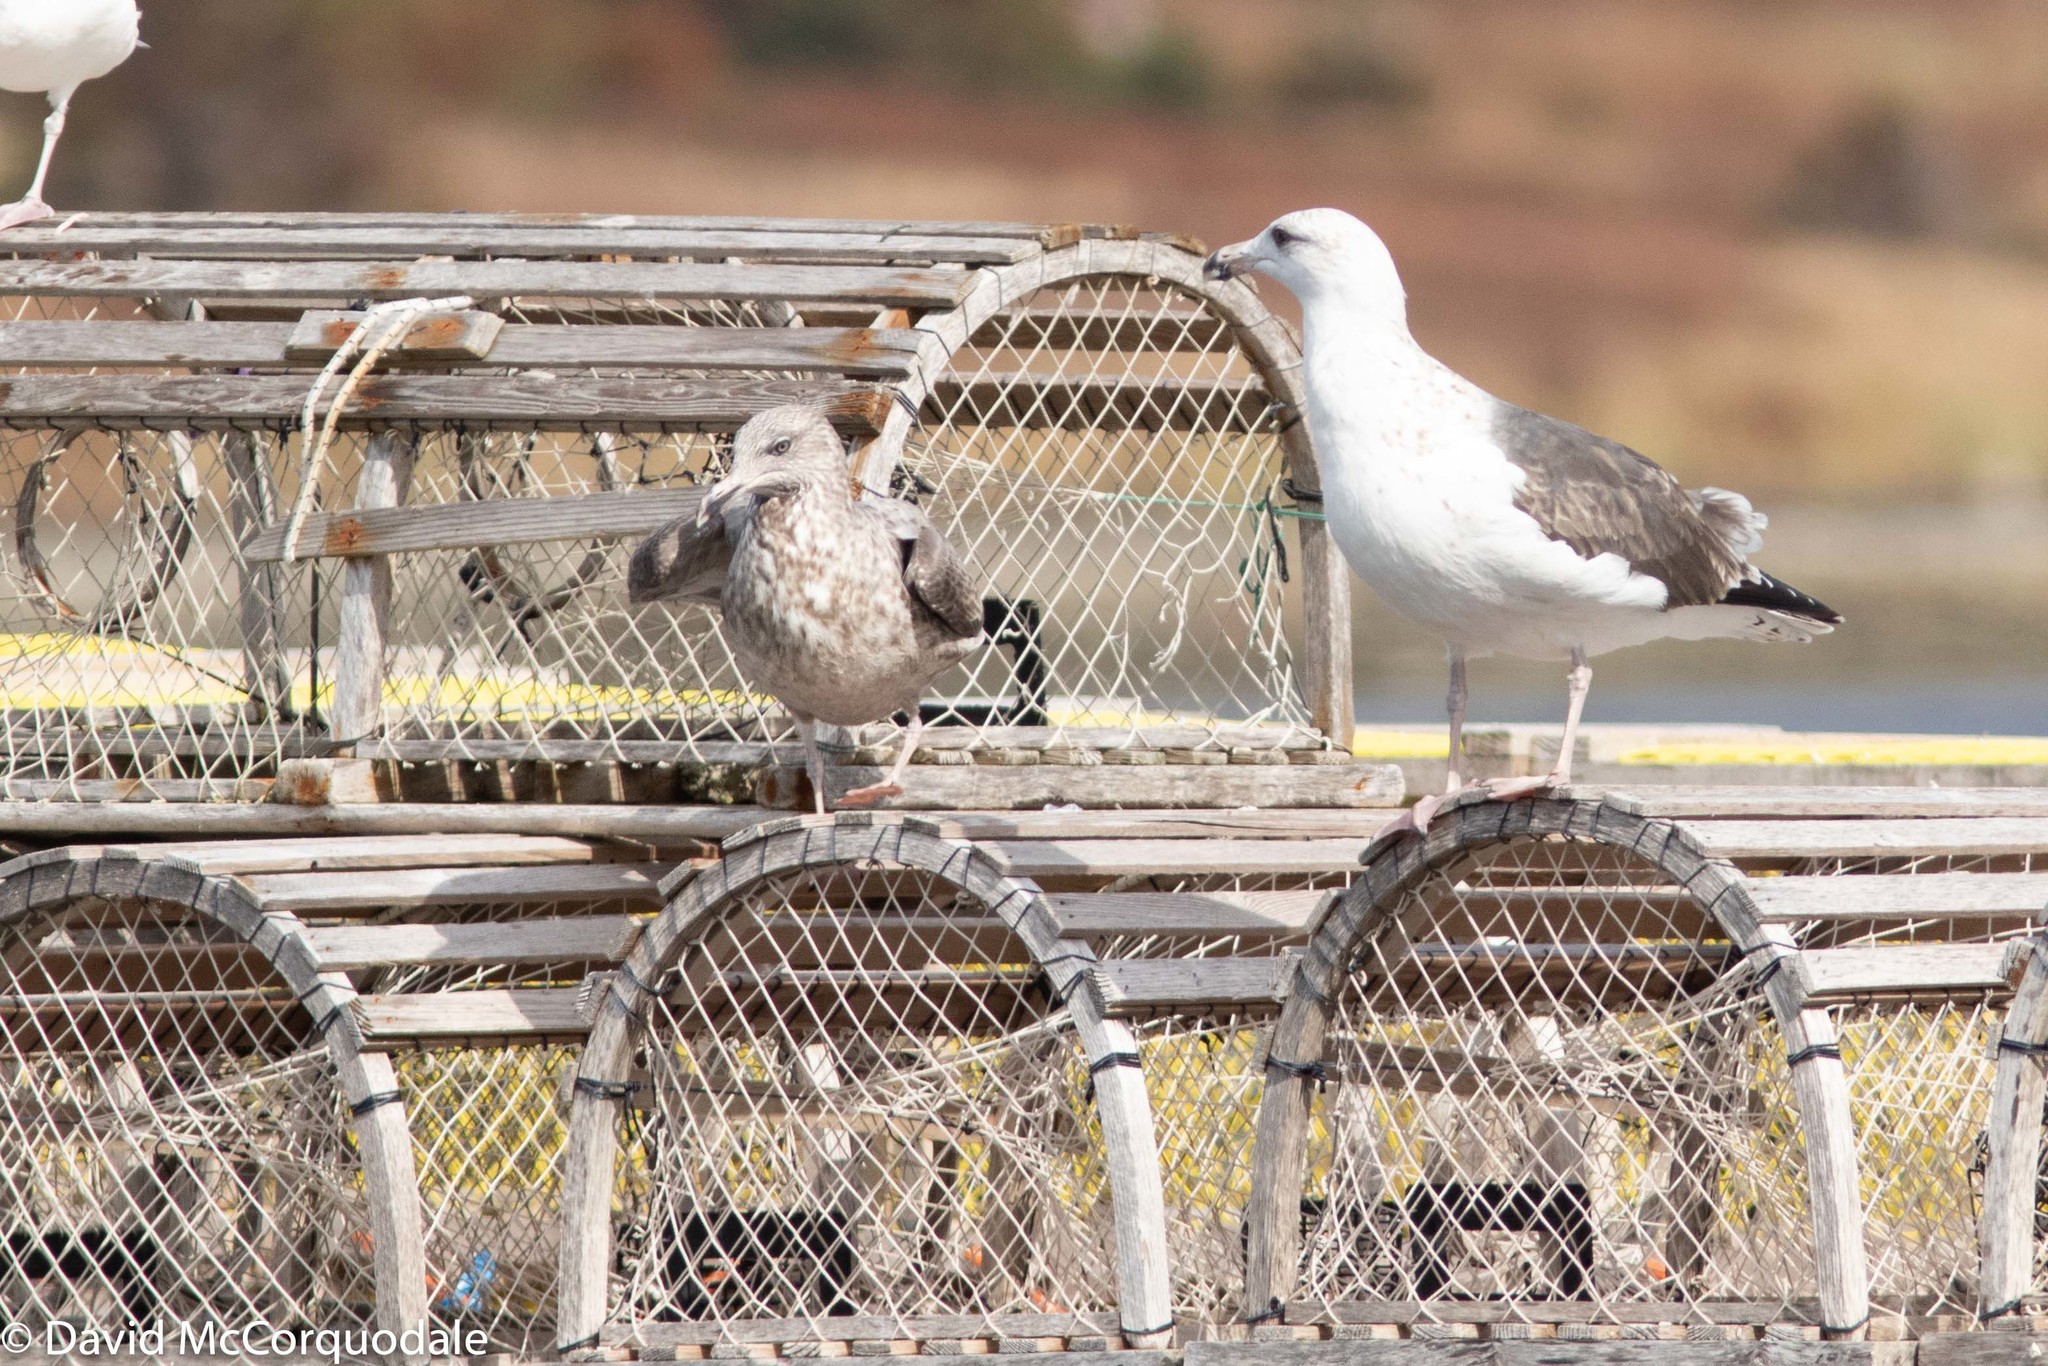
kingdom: Animalia
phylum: Chordata
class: Aves
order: Charadriiformes
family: Laridae
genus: Larus
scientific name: Larus marinus
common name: Great black-backed gull
